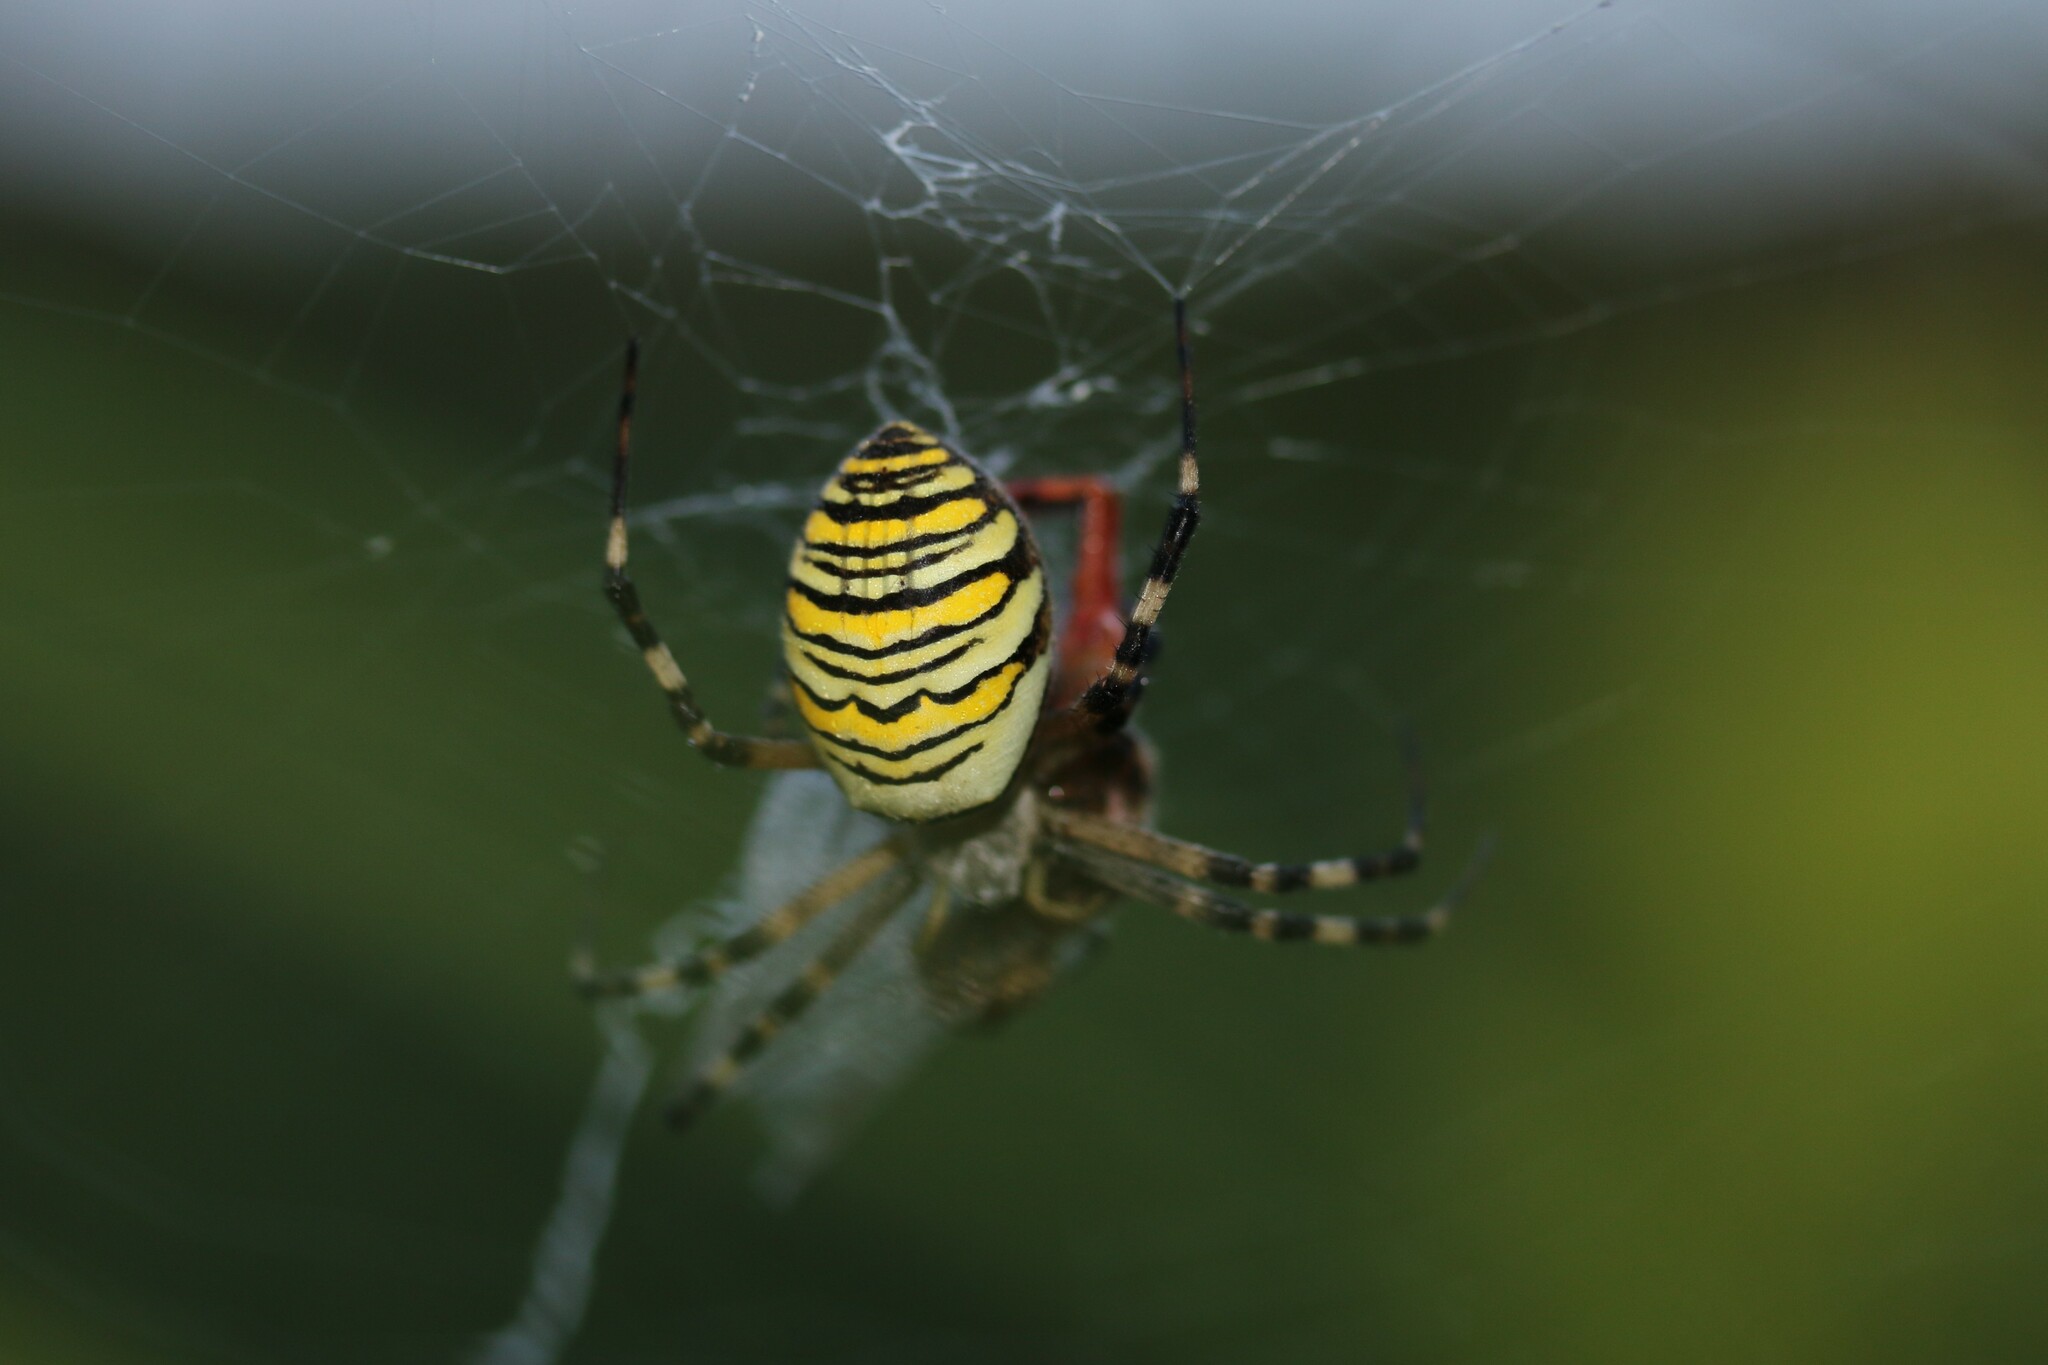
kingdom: Animalia
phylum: Arthropoda
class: Arachnida
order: Araneae
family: Araneidae
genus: Argiope
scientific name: Argiope bruennichi
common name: Wasp spider
